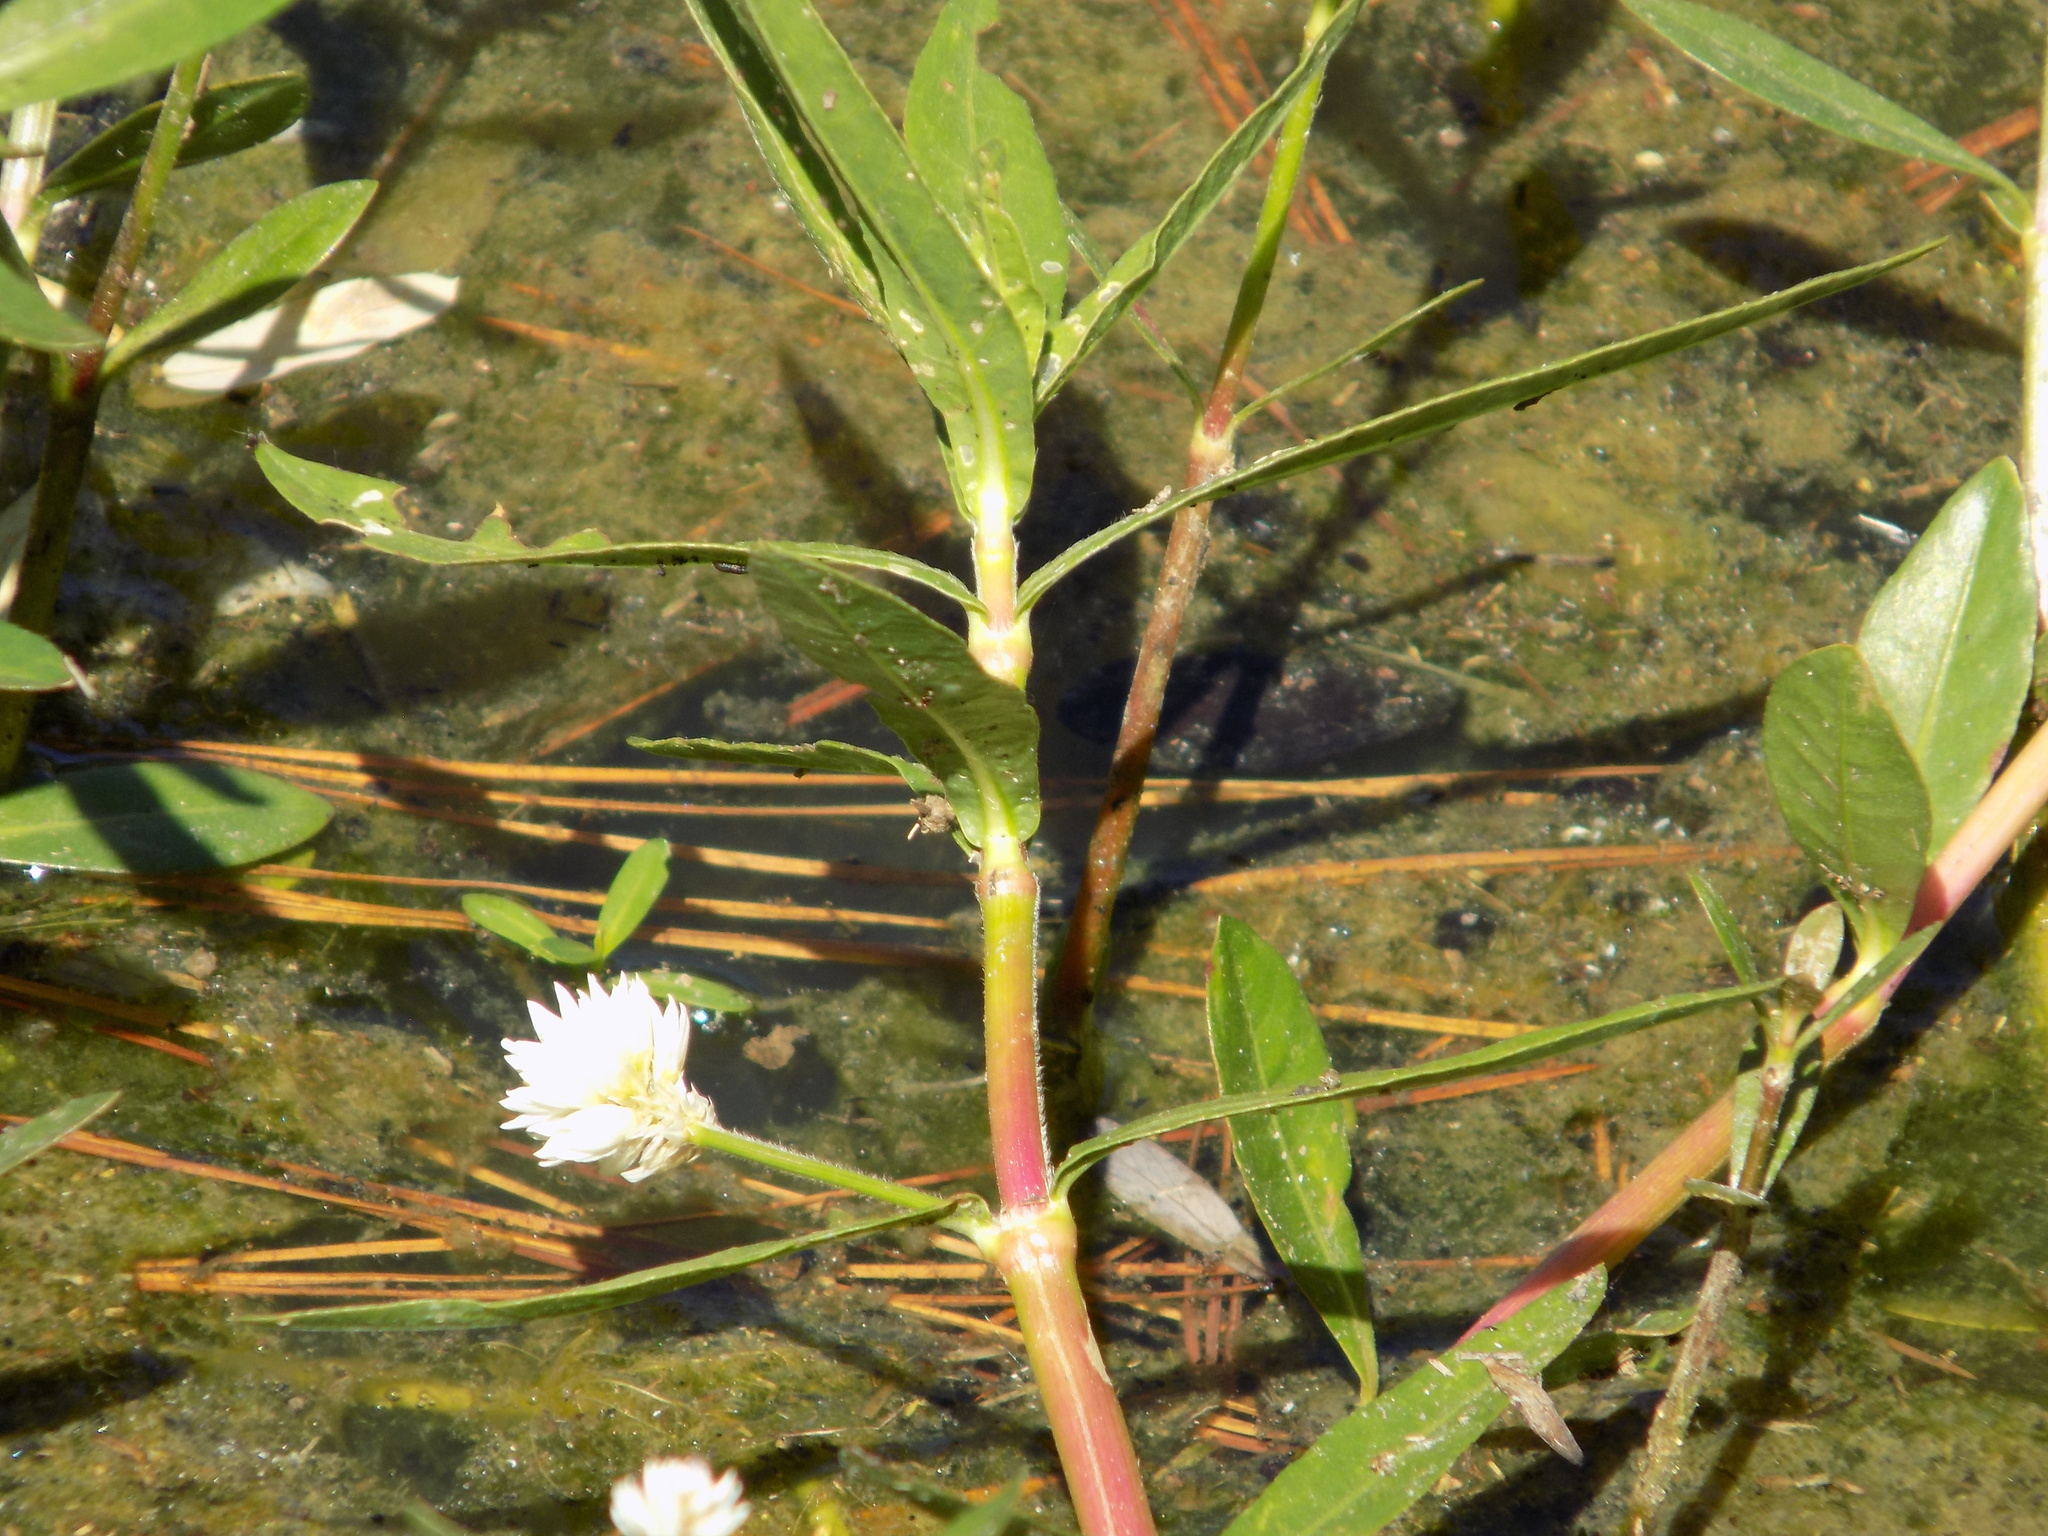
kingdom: Plantae
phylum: Tracheophyta
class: Magnoliopsida
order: Caryophyllales
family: Amaranthaceae
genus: Alternanthera
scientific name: Alternanthera philoxeroides
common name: Alligatorweed
